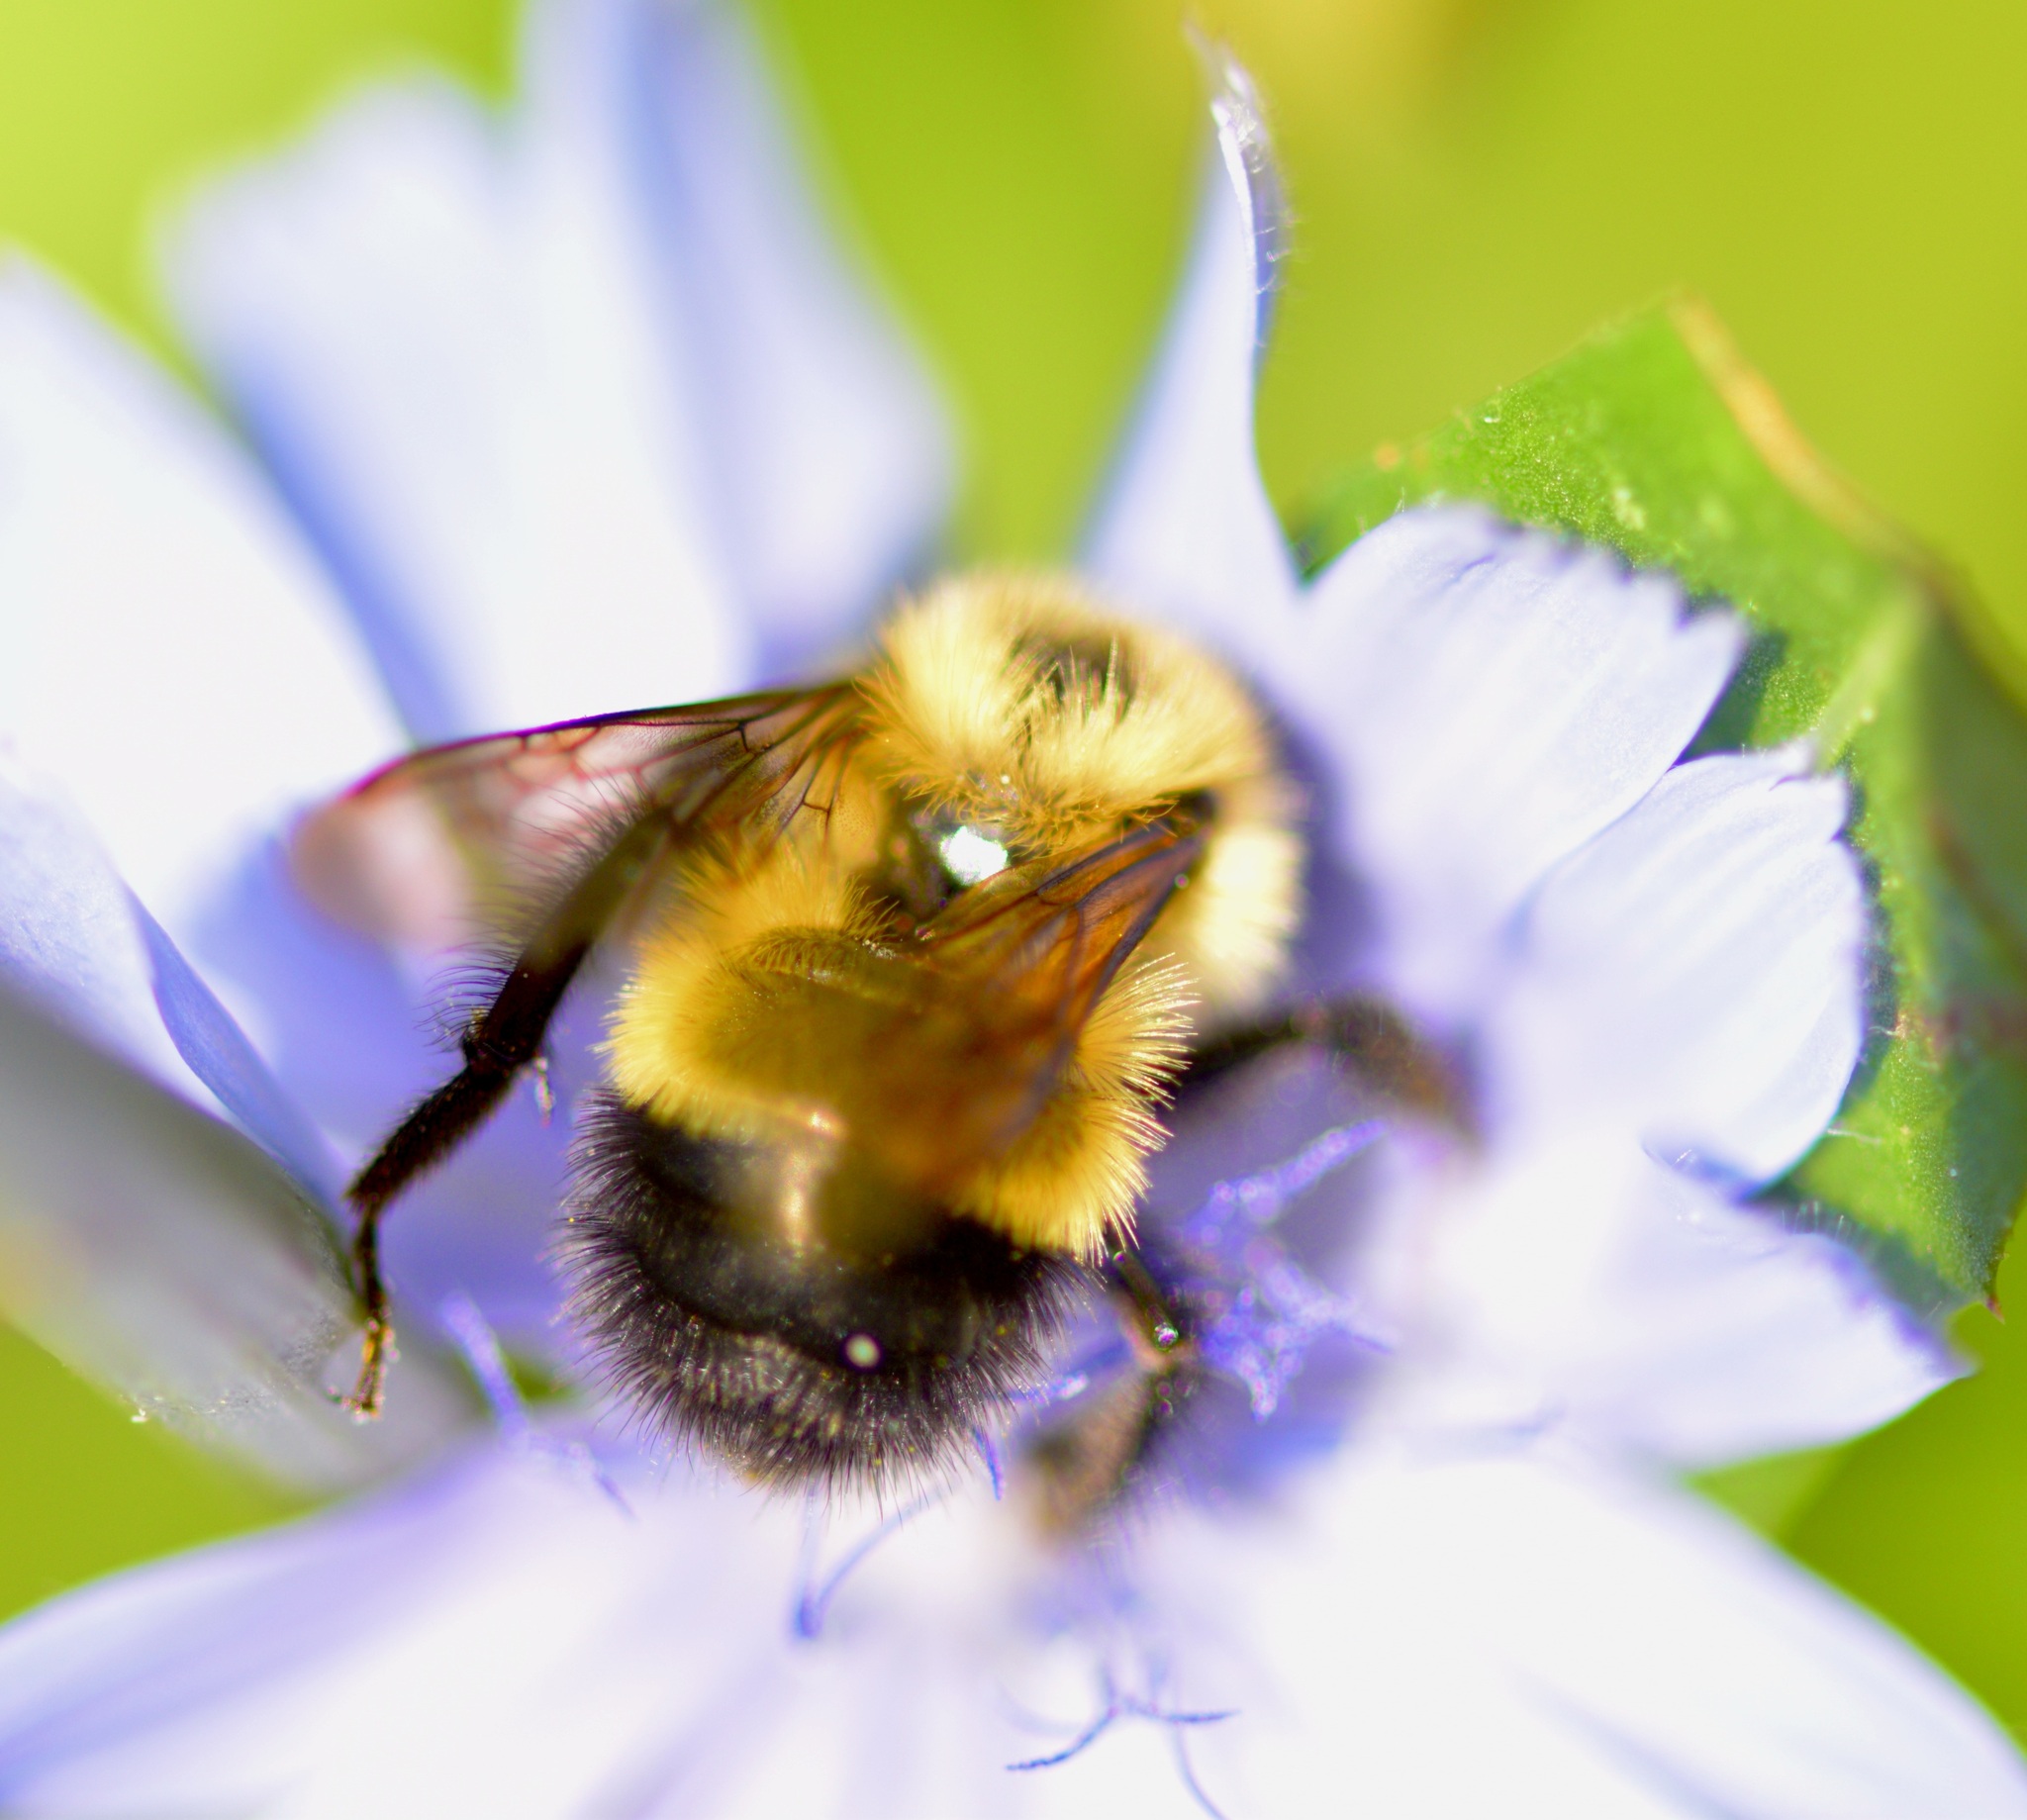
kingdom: Animalia
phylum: Arthropoda
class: Insecta
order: Hymenoptera
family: Apidae
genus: Pyrobombus
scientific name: Pyrobombus
